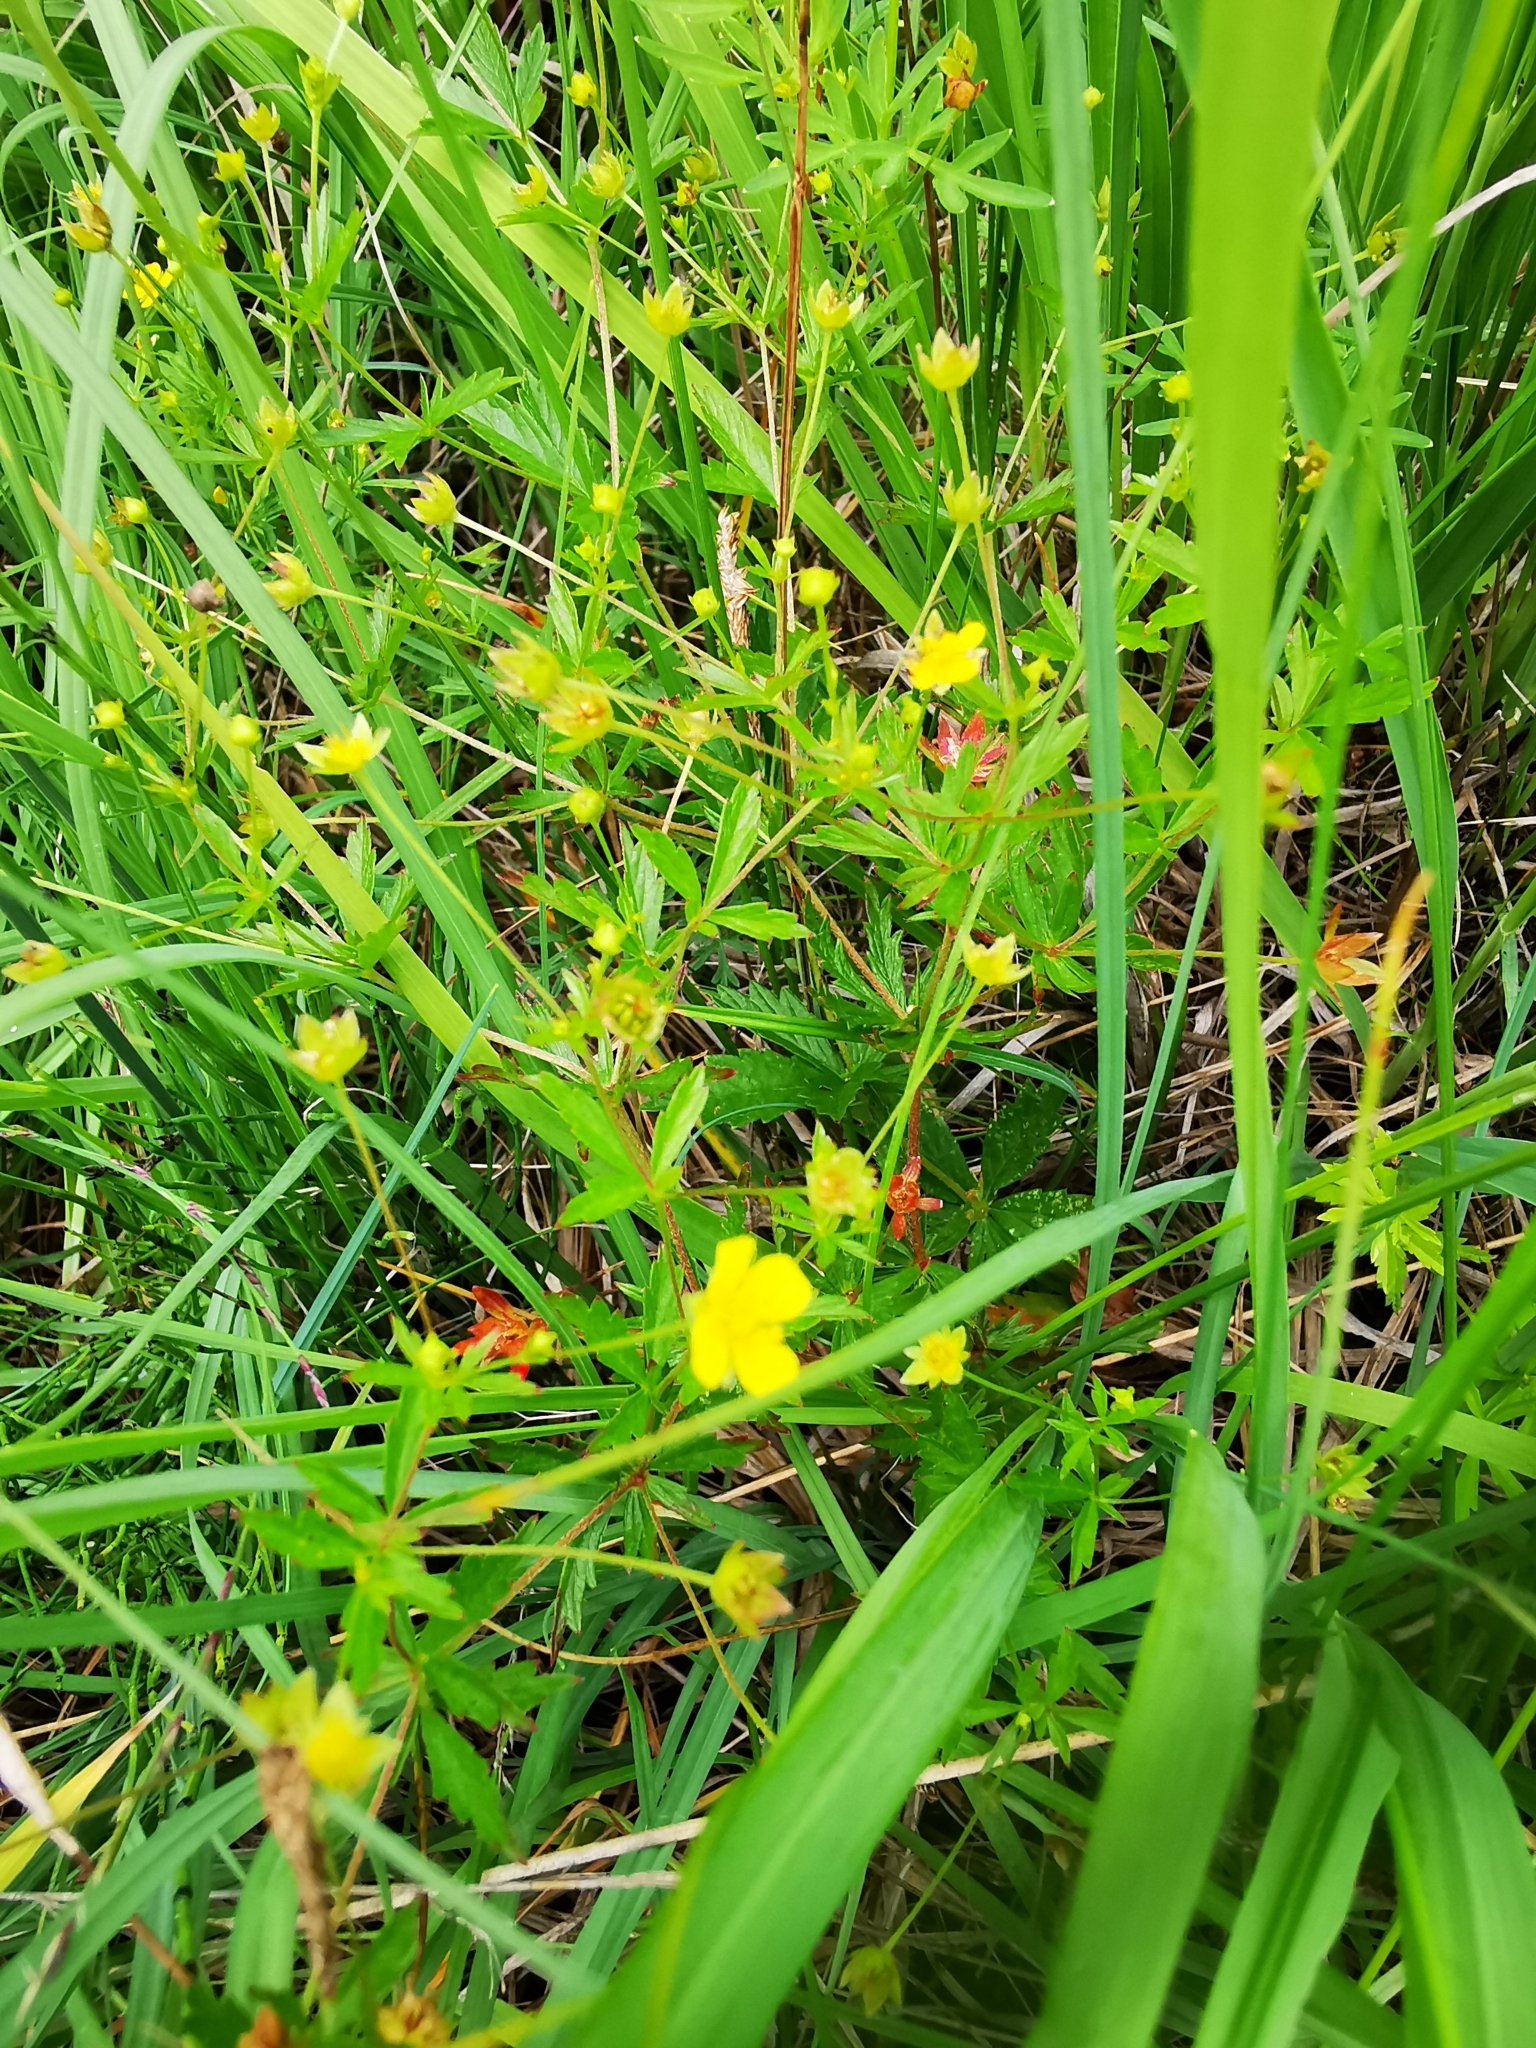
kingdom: Plantae
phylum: Tracheophyta
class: Magnoliopsida
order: Rosales
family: Rosaceae
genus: Potentilla
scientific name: Potentilla erecta
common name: Tormentil
